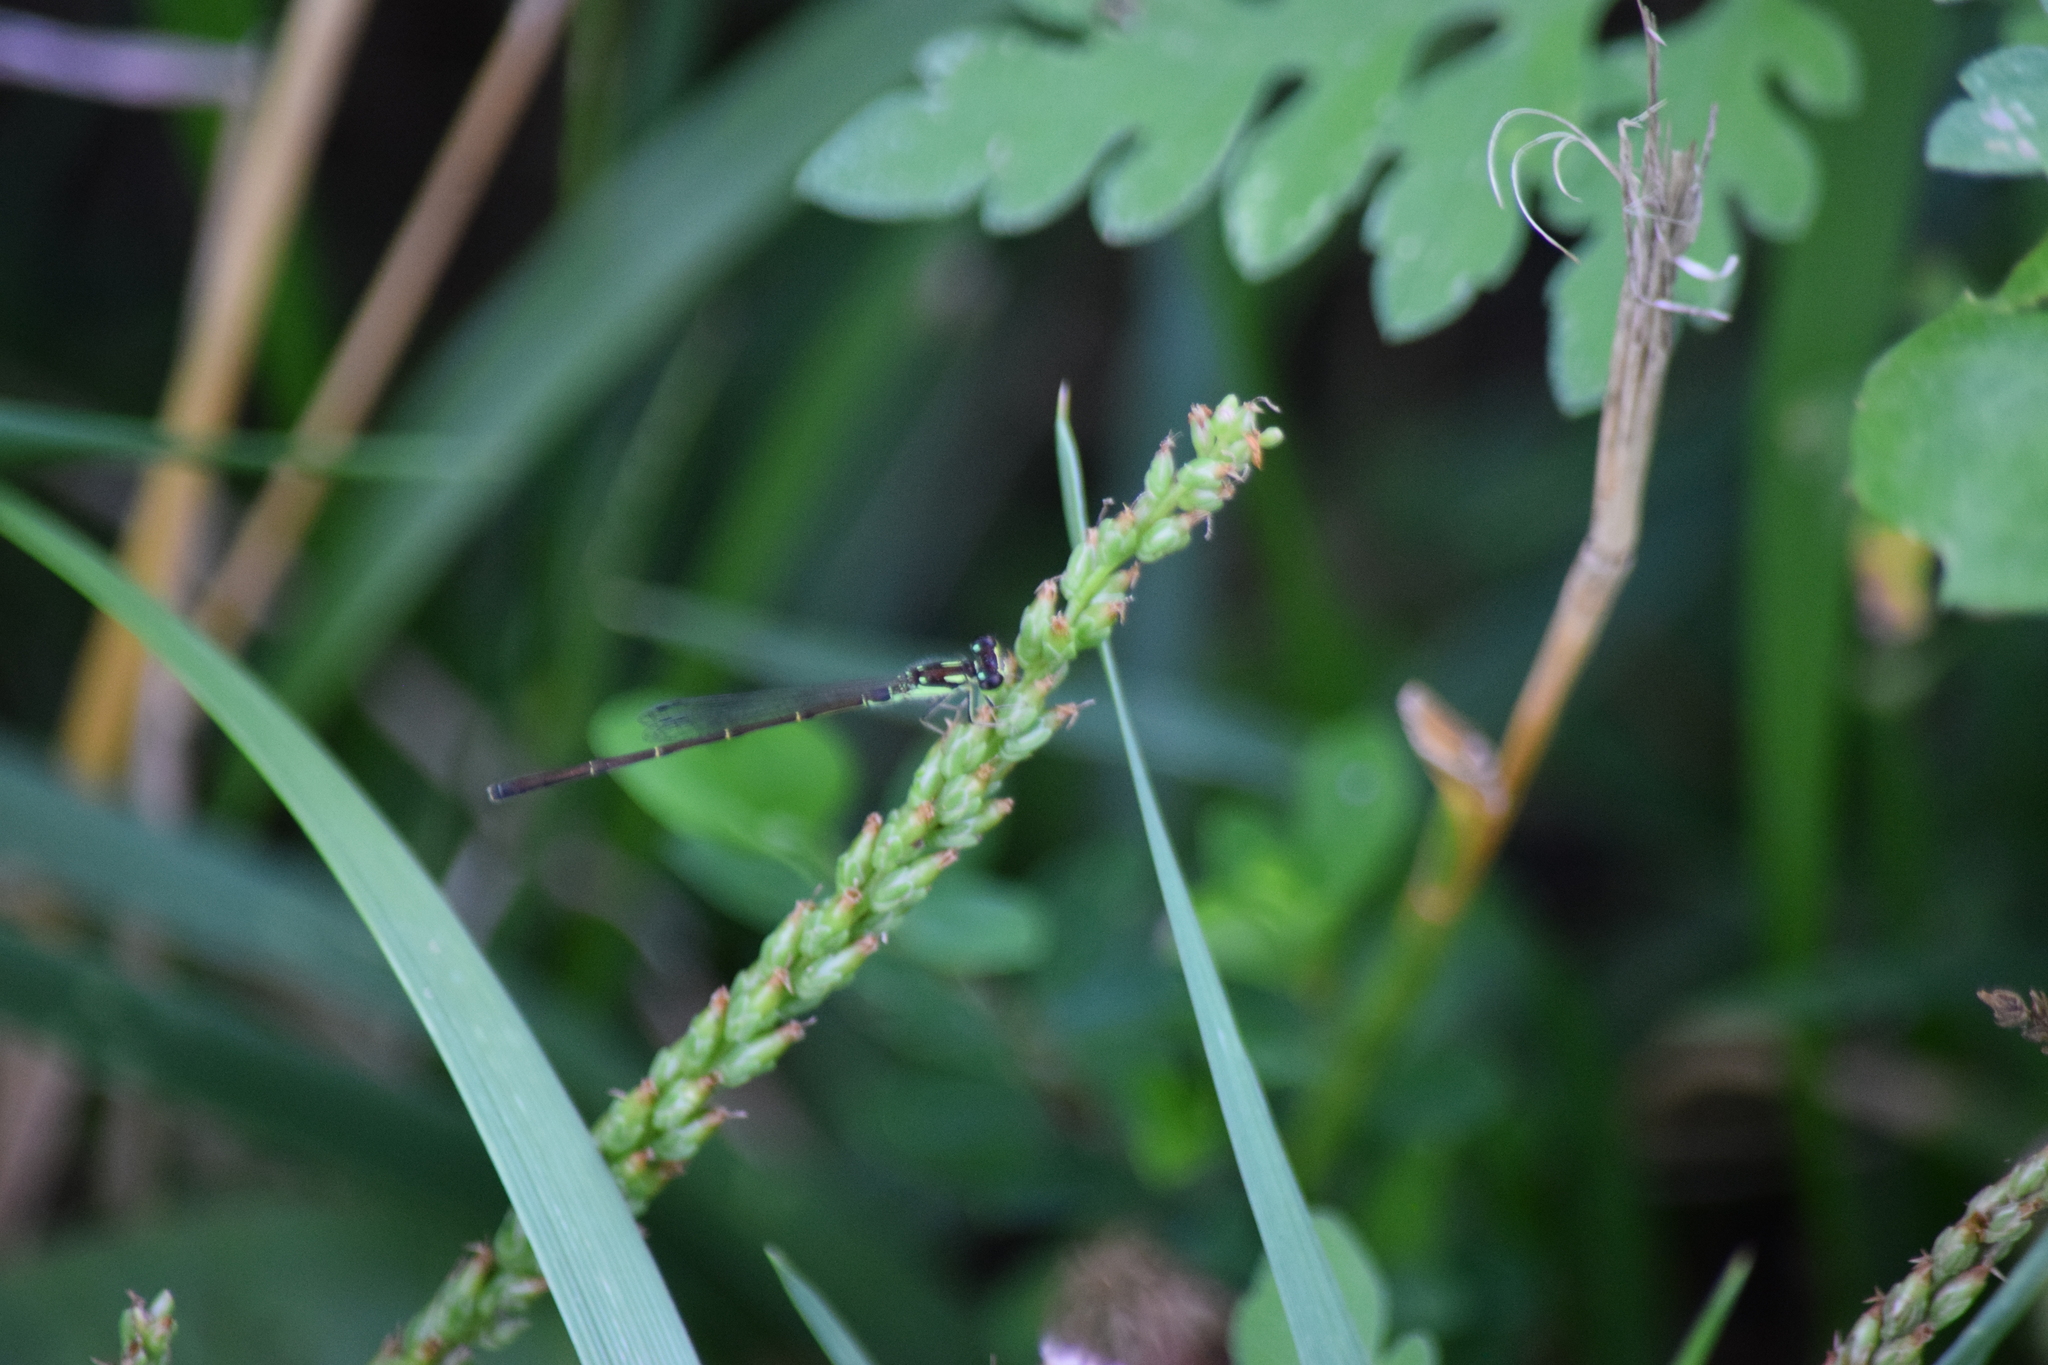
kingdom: Animalia
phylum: Arthropoda
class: Insecta
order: Odonata
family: Coenagrionidae
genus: Ischnura
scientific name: Ischnura posita
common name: Fragile forktail
